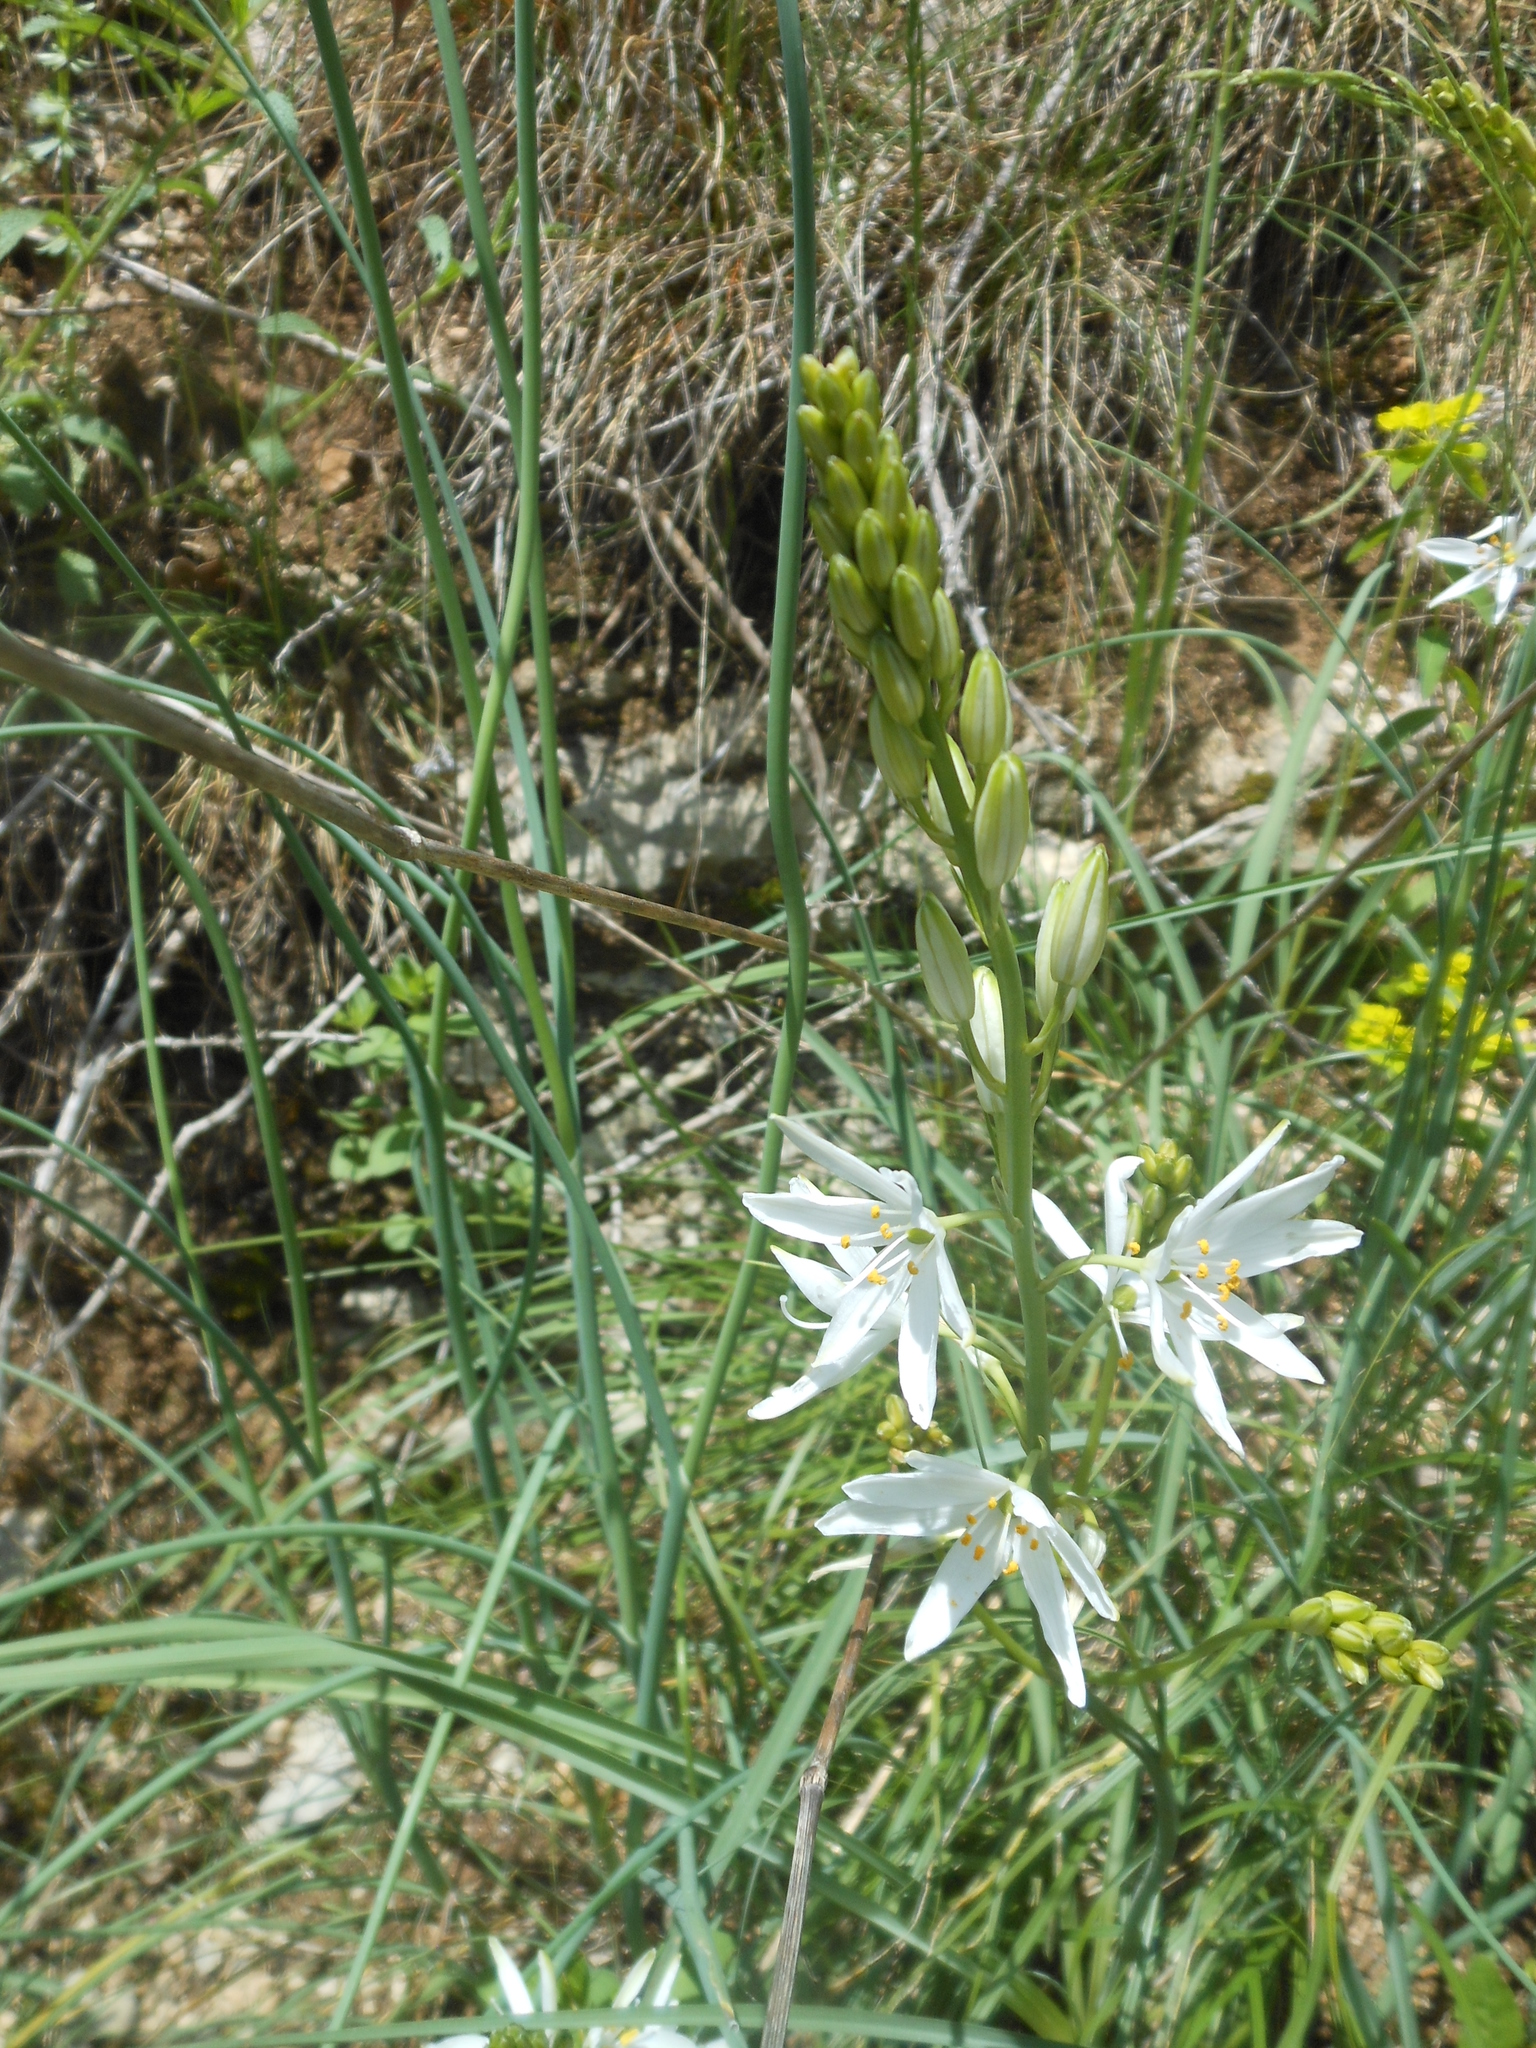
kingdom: Plantae
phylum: Tracheophyta
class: Liliopsida
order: Asparagales
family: Asparagaceae
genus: Anthericum
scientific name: Anthericum liliago
